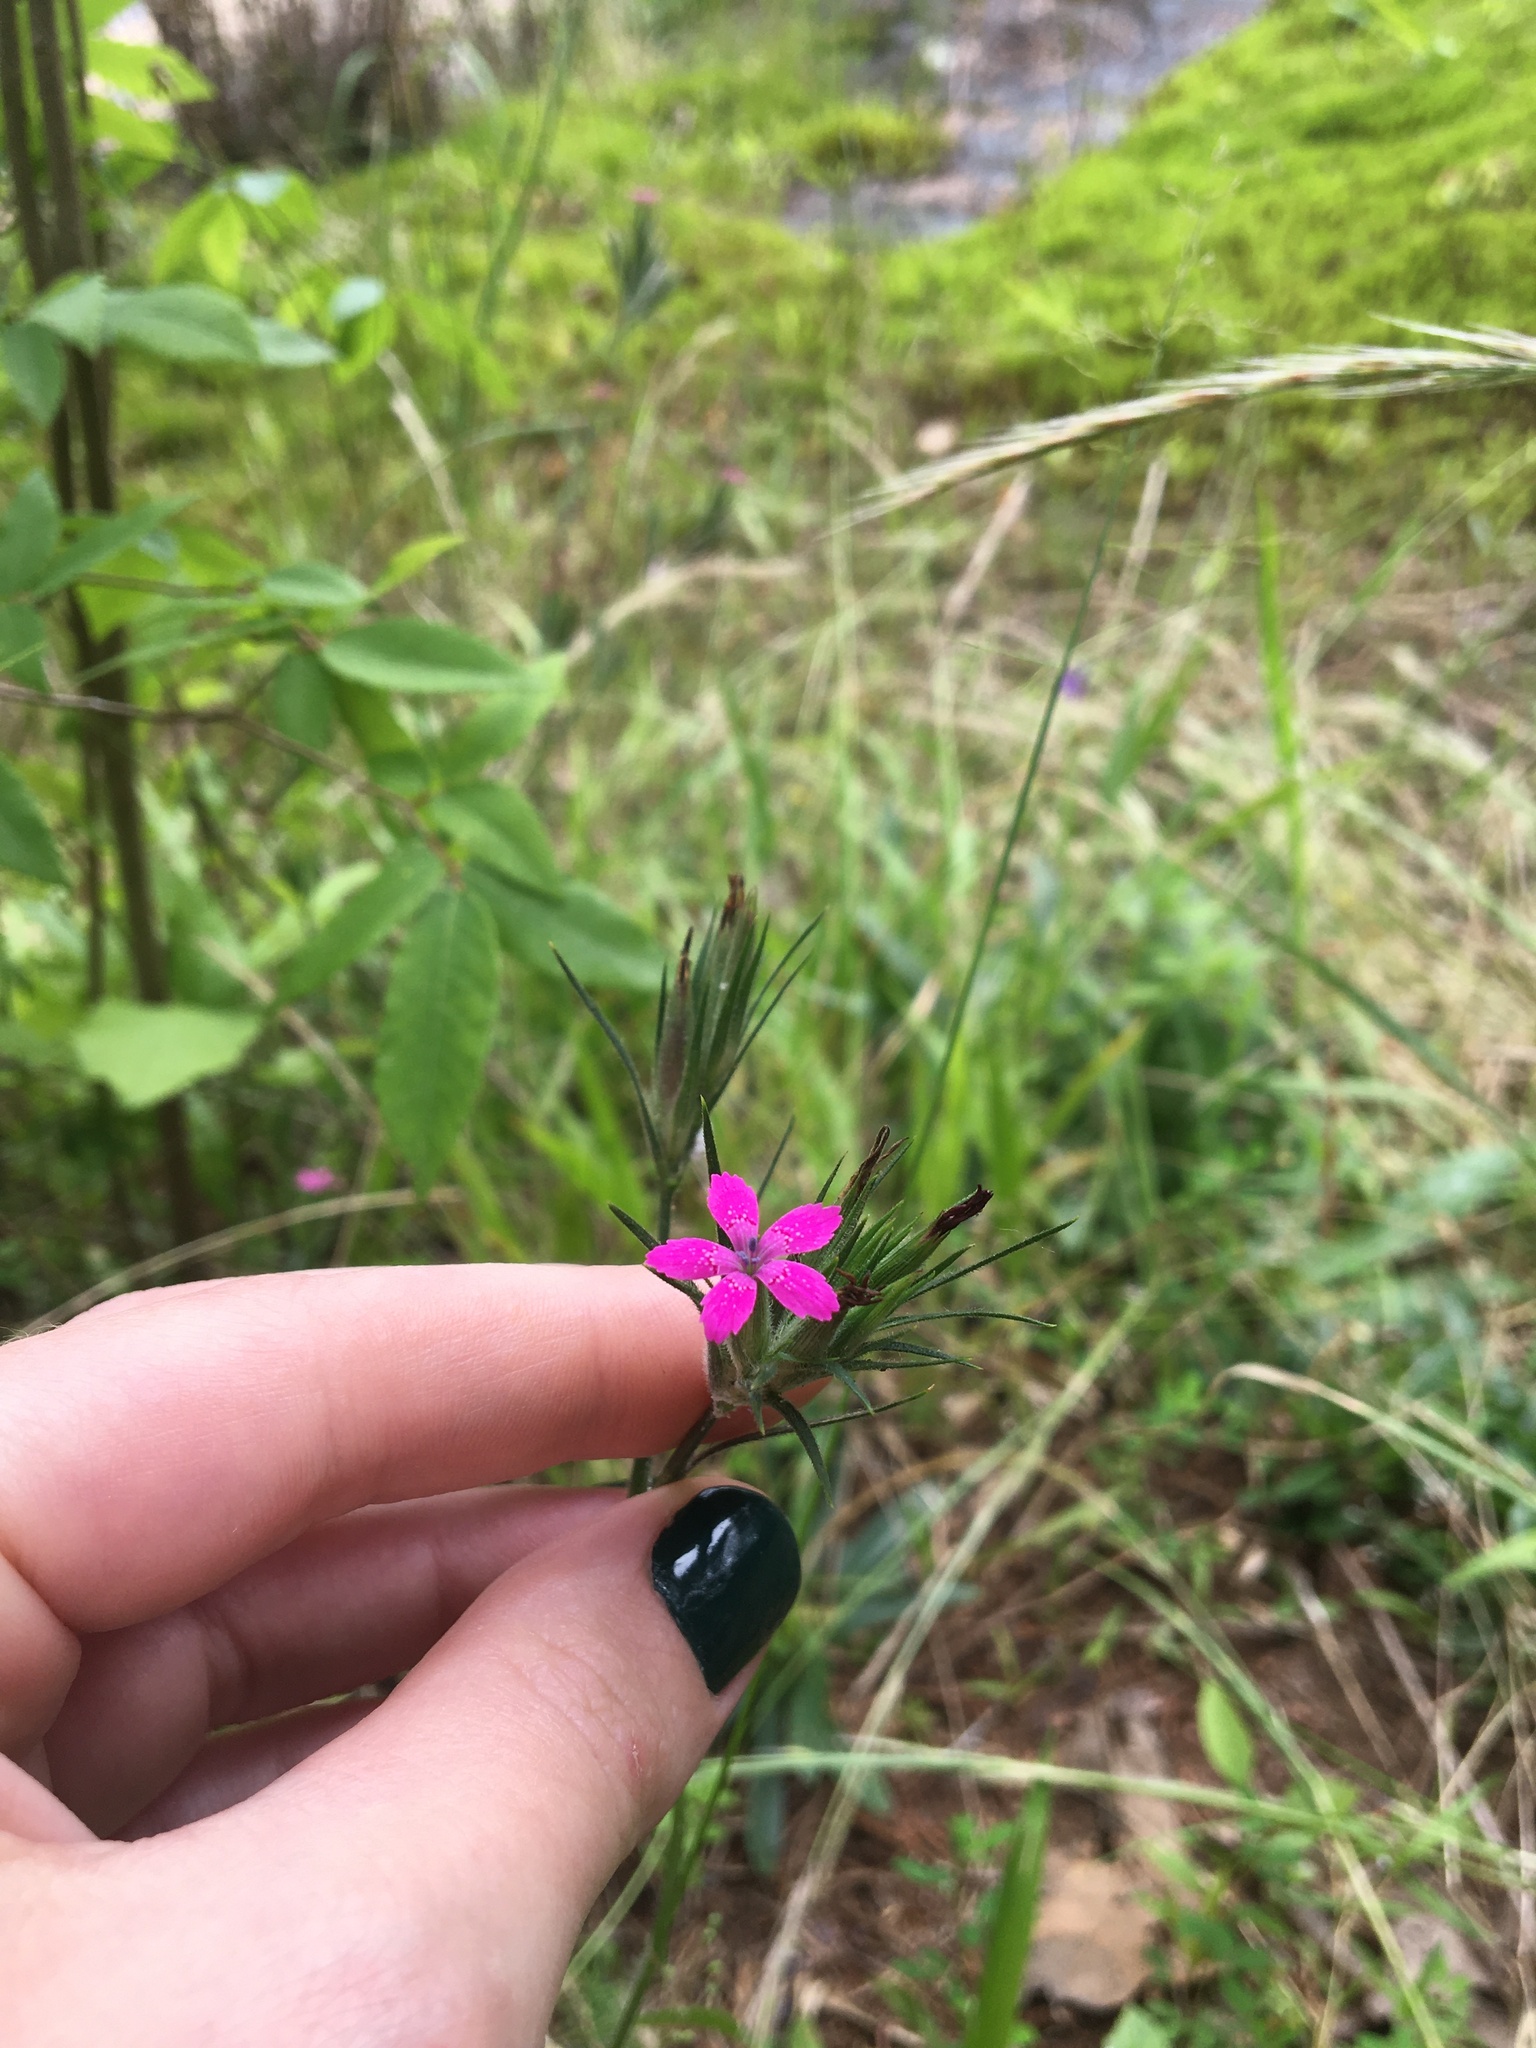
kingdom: Plantae
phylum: Tracheophyta
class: Magnoliopsida
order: Caryophyllales
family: Caryophyllaceae
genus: Dianthus
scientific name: Dianthus armeria
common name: Deptford pink
